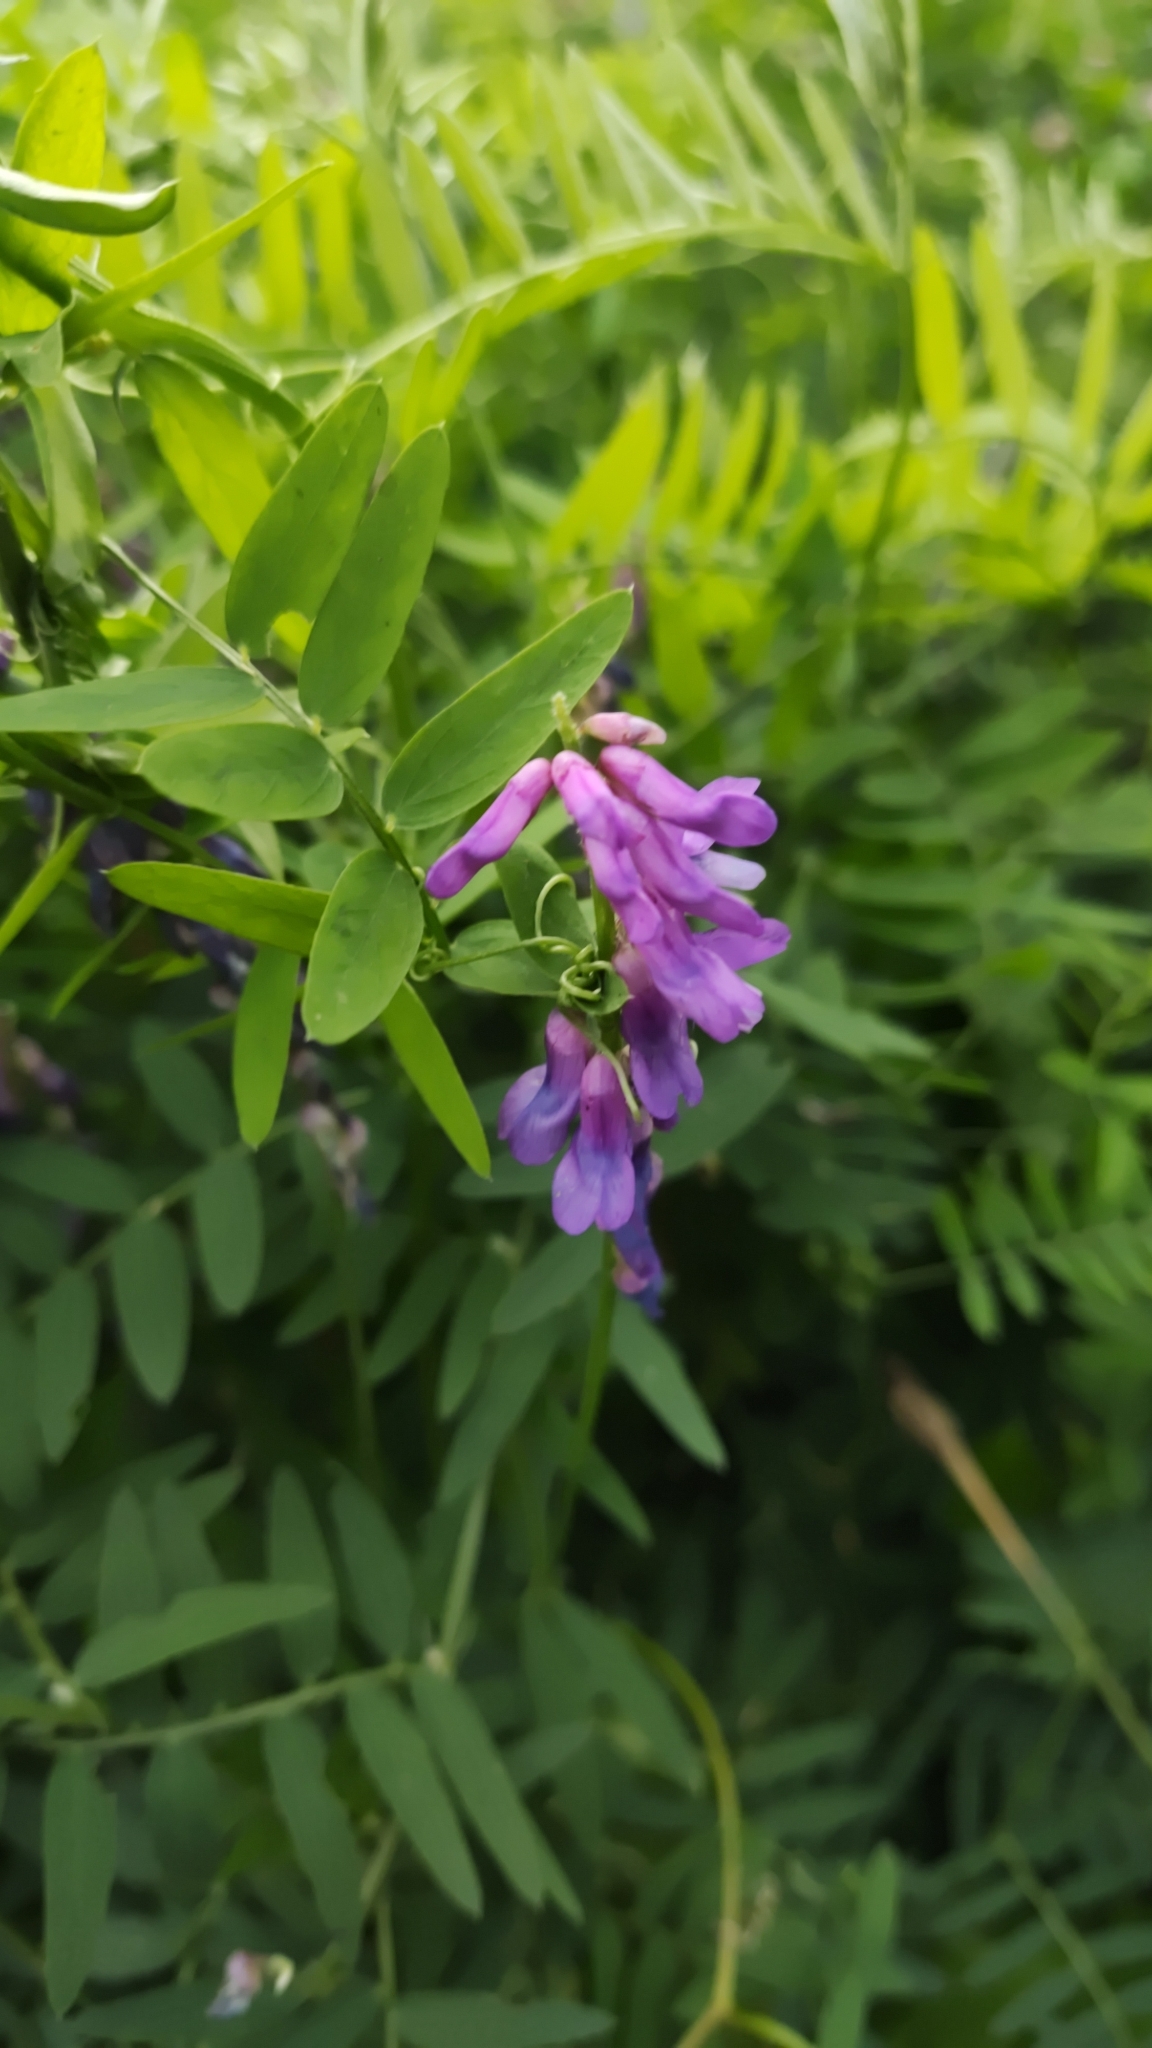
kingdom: Plantae
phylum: Tracheophyta
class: Magnoliopsida
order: Fabales
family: Fabaceae
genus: Vicia
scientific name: Vicia cracca
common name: Bird vetch
